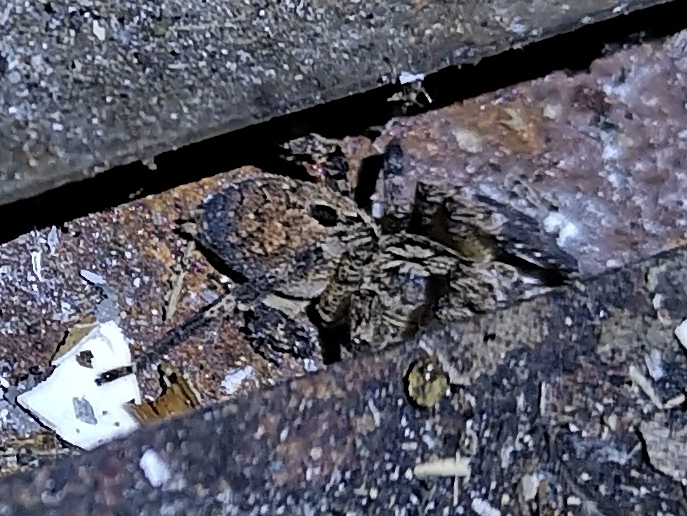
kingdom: Animalia
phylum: Arthropoda
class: Arachnida
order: Araneae
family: Zoropsidae
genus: Zoropsis
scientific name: Zoropsis spinimana
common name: Zoropsid spider
